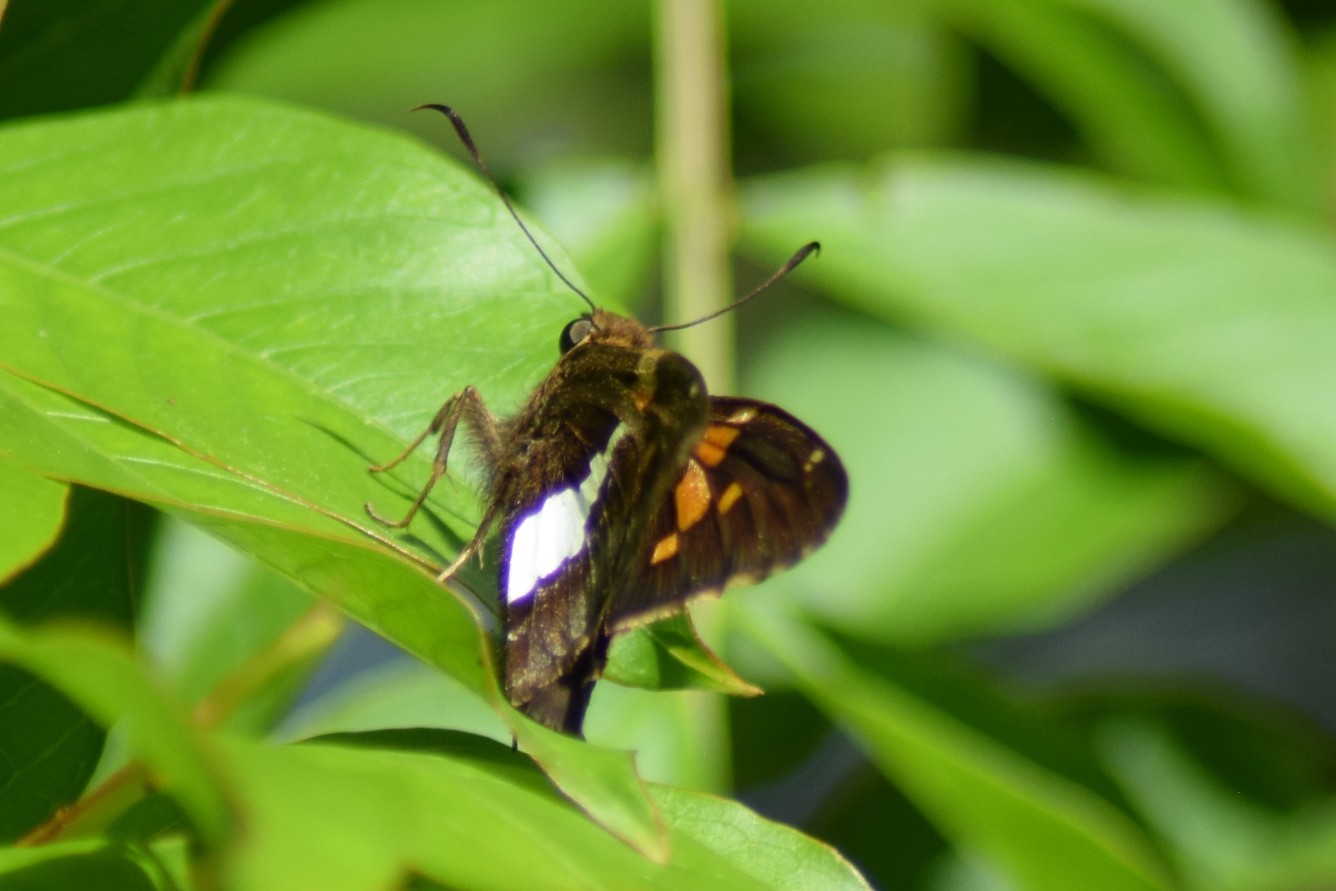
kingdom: Animalia
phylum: Arthropoda
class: Insecta
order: Lepidoptera
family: Hesperiidae
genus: Epargyreus
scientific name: Epargyreus clarus
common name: Silver-spotted skipper
